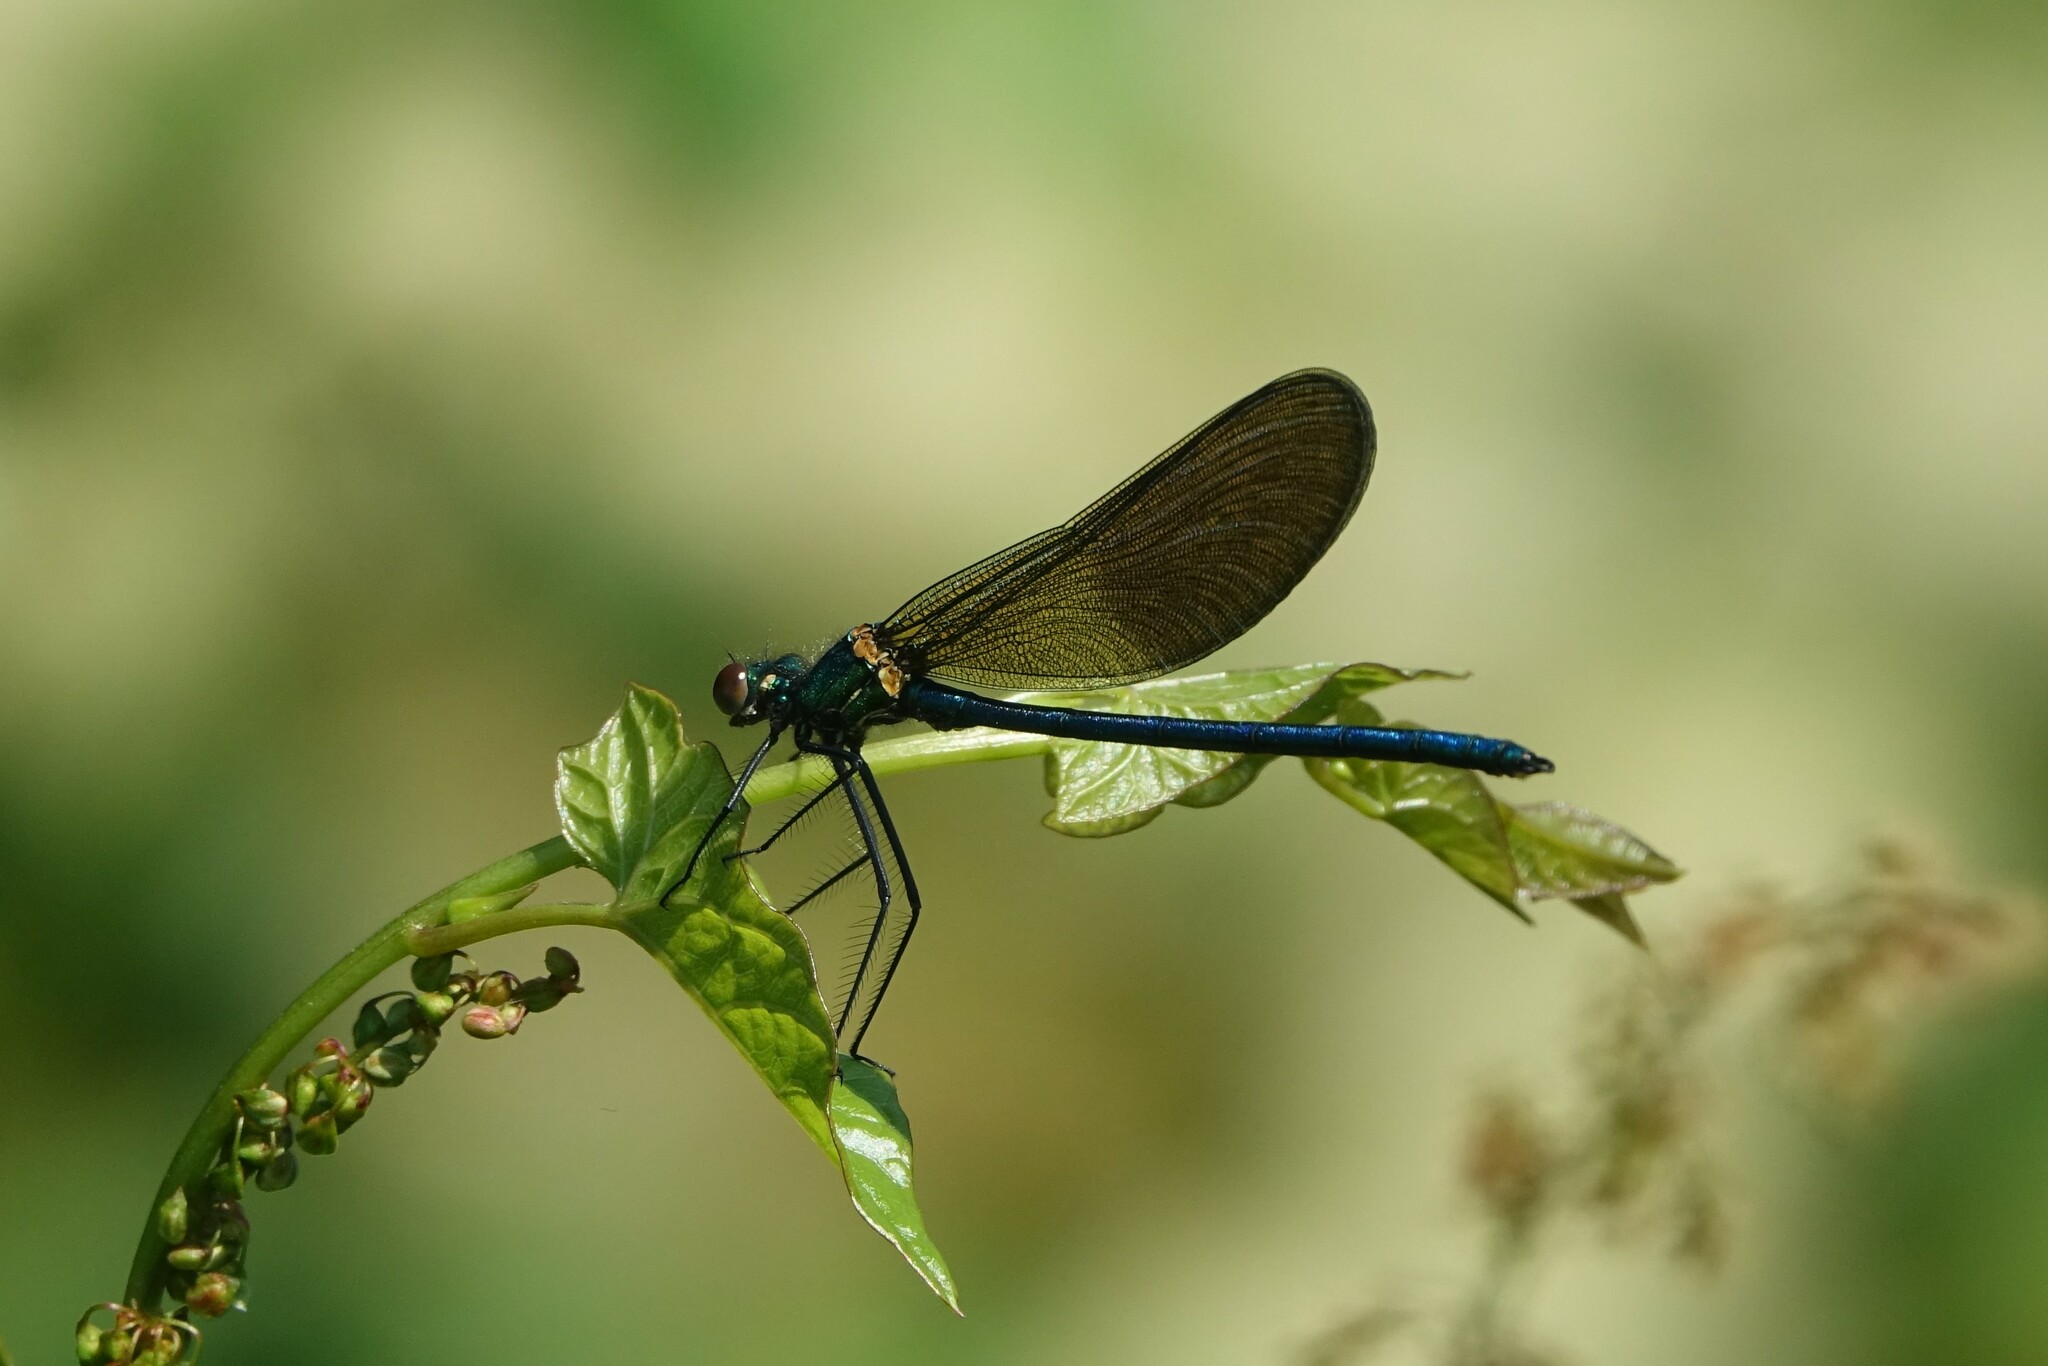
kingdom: Animalia
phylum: Arthropoda
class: Insecta
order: Odonata
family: Calopterygidae
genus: Calopteryx
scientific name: Calopteryx xanthostoma
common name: Western demoiselle
